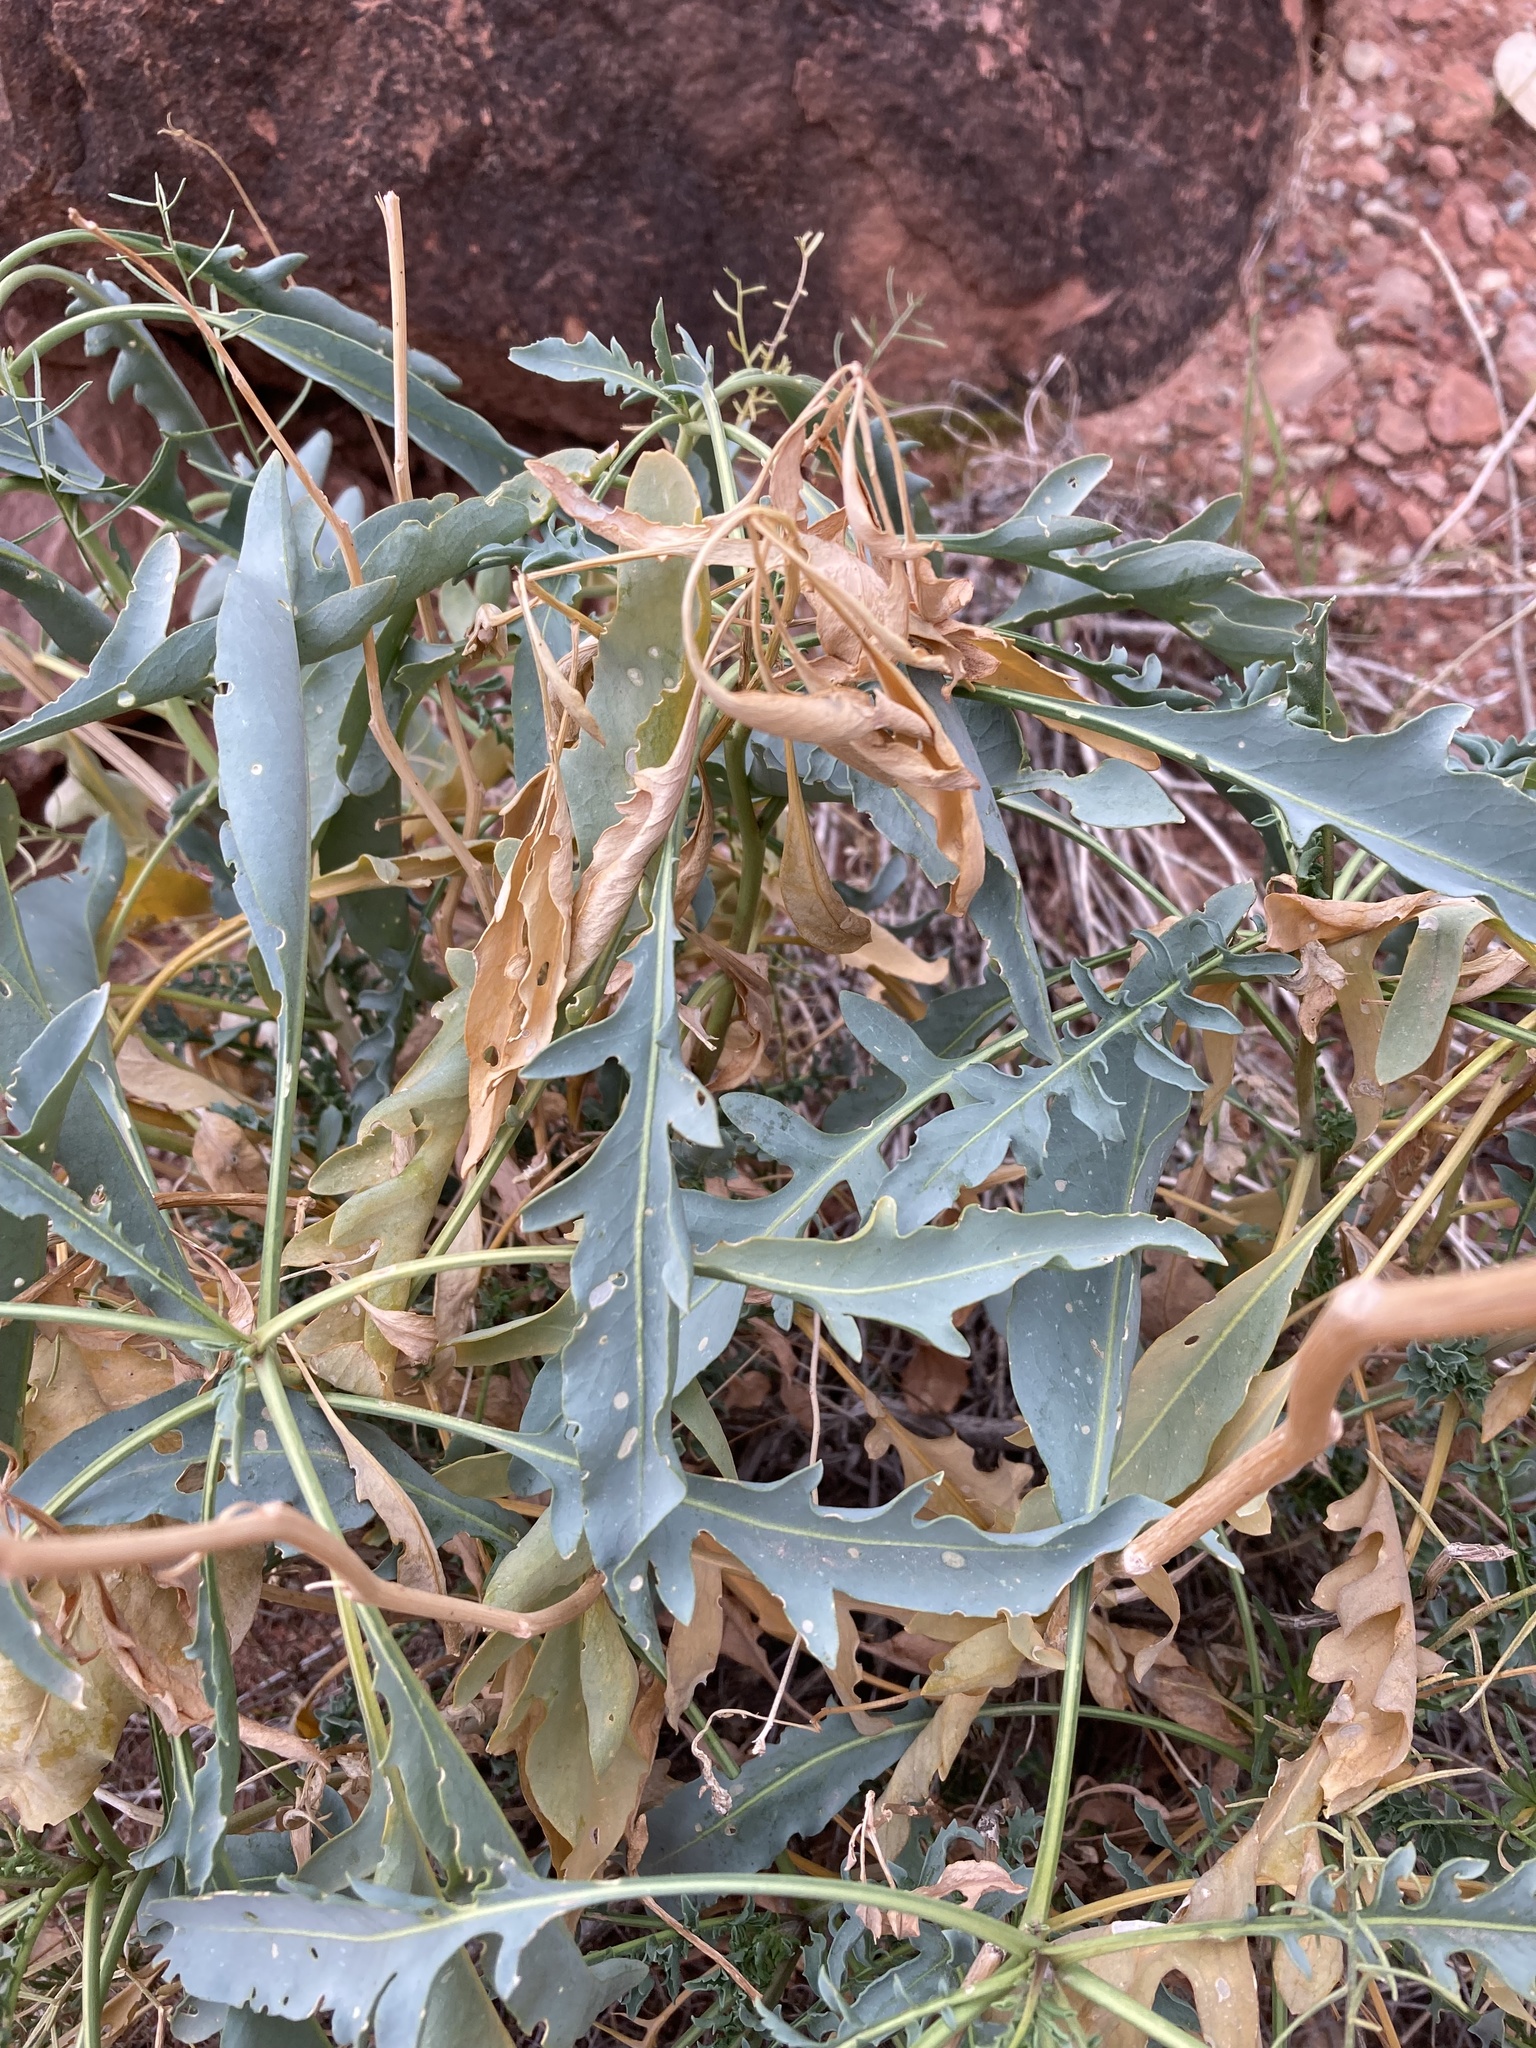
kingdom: Plantae
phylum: Tracheophyta
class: Magnoliopsida
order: Brassicales
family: Brassicaceae
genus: Stanleya
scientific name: Stanleya pinnata
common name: Prince's-plume
